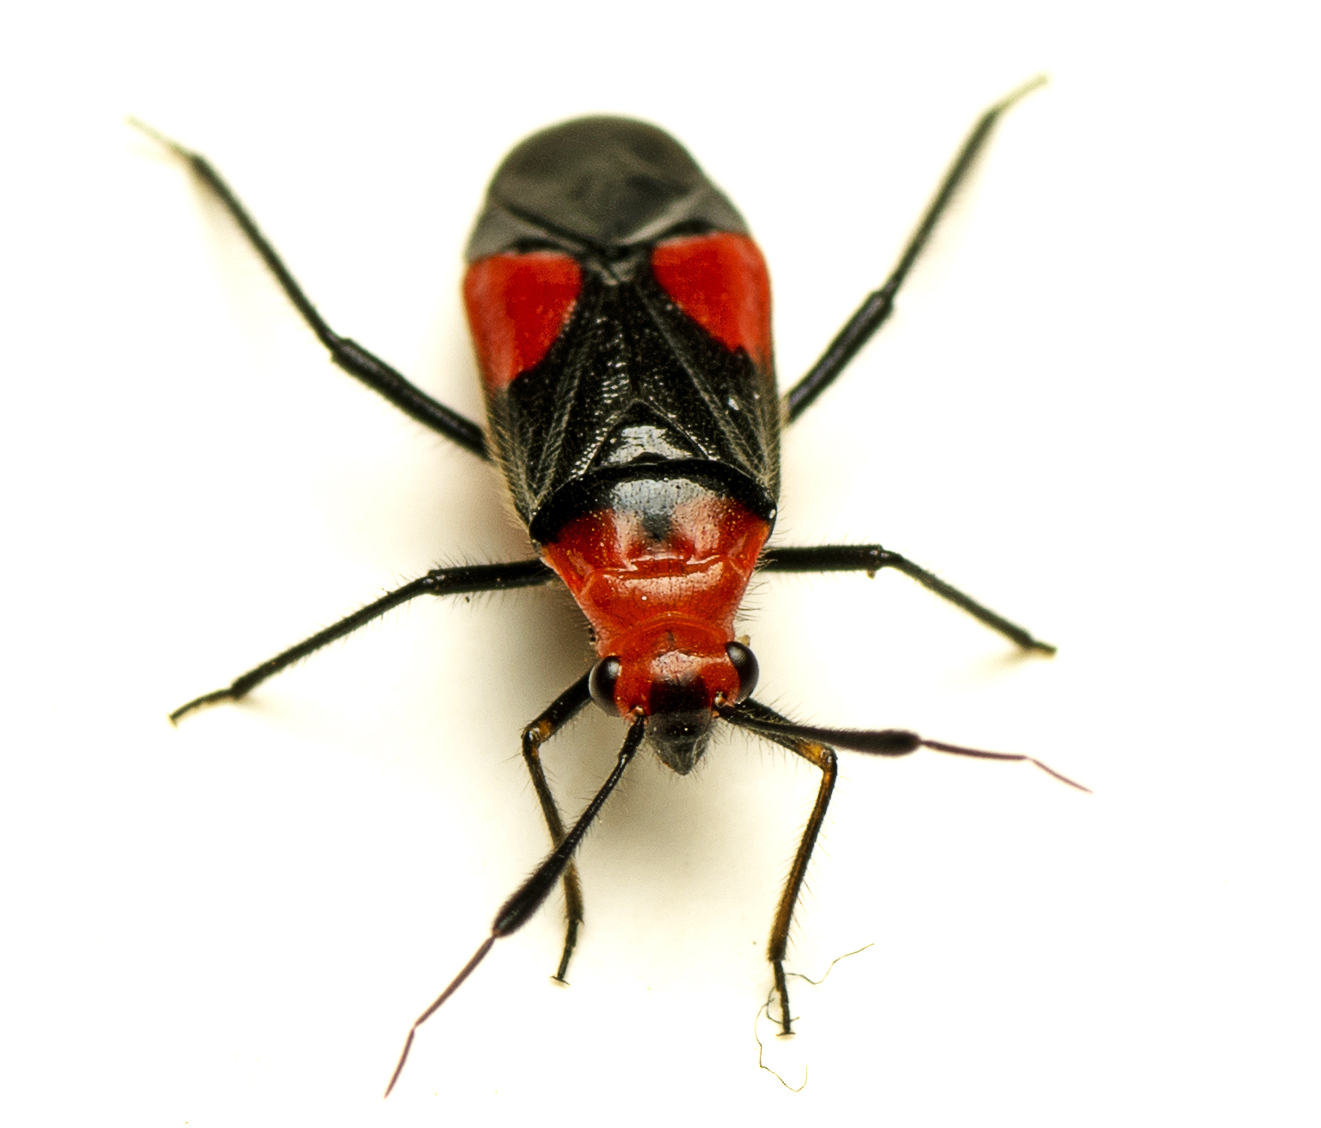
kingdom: Animalia
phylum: Arthropoda
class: Insecta
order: Hemiptera
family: Miridae
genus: Trilaccus
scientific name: Trilaccus nigroruber
